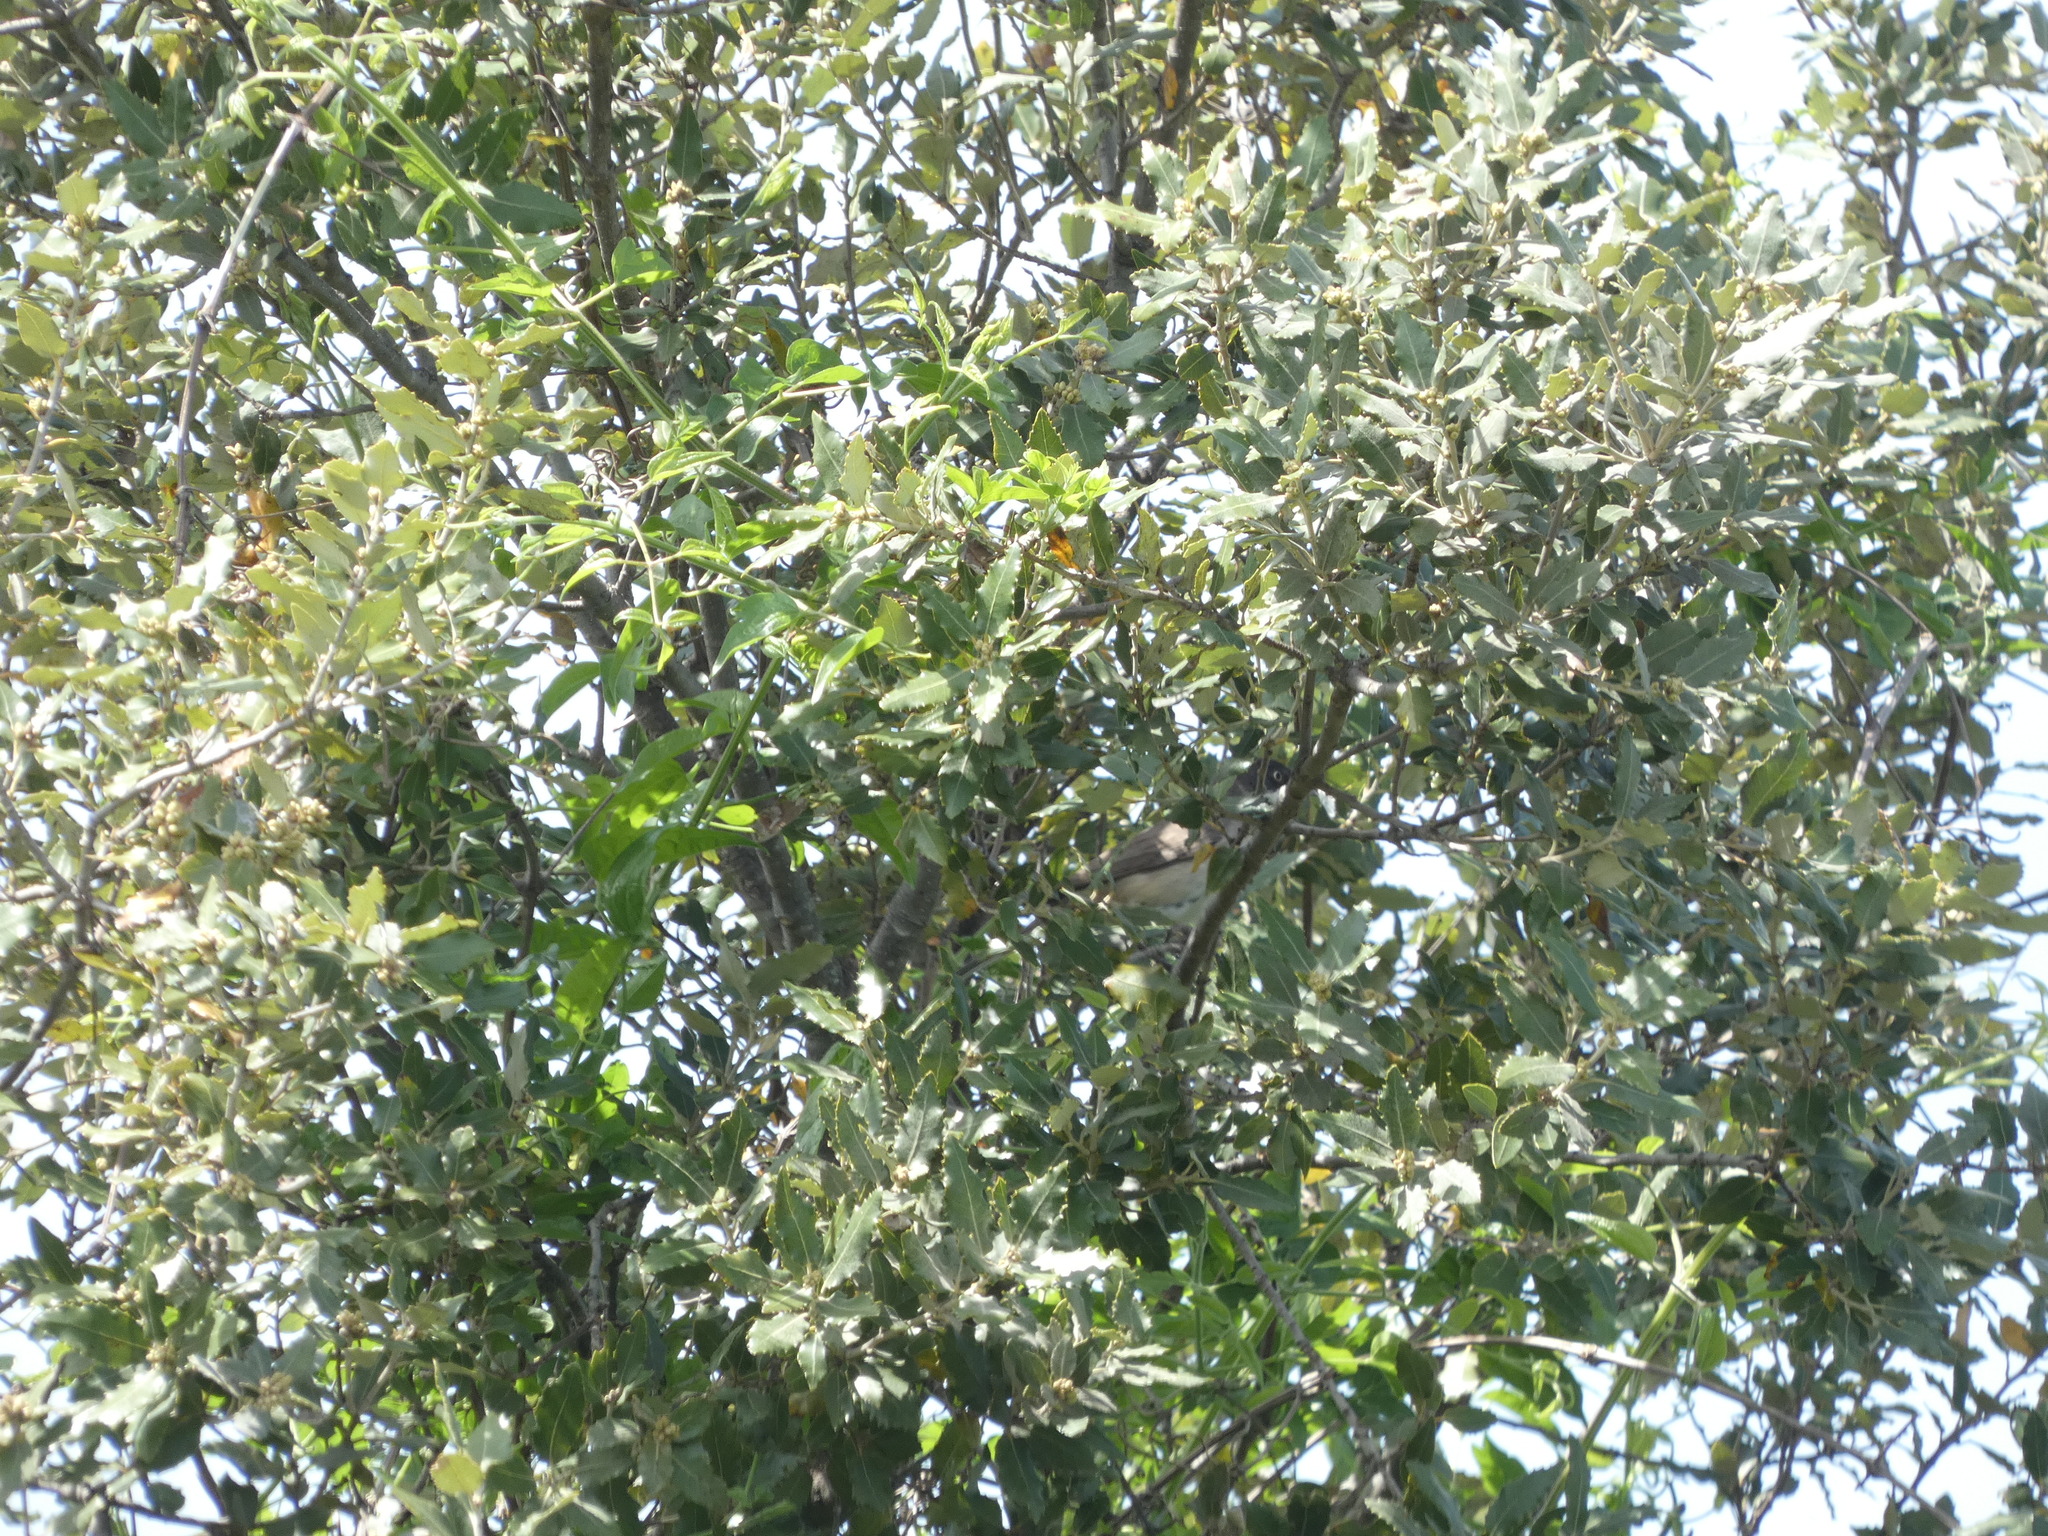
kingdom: Animalia
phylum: Chordata
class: Aves
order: Passeriformes
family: Sylviidae
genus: Sylvia
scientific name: Sylvia hortensis
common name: Orphean warbler
